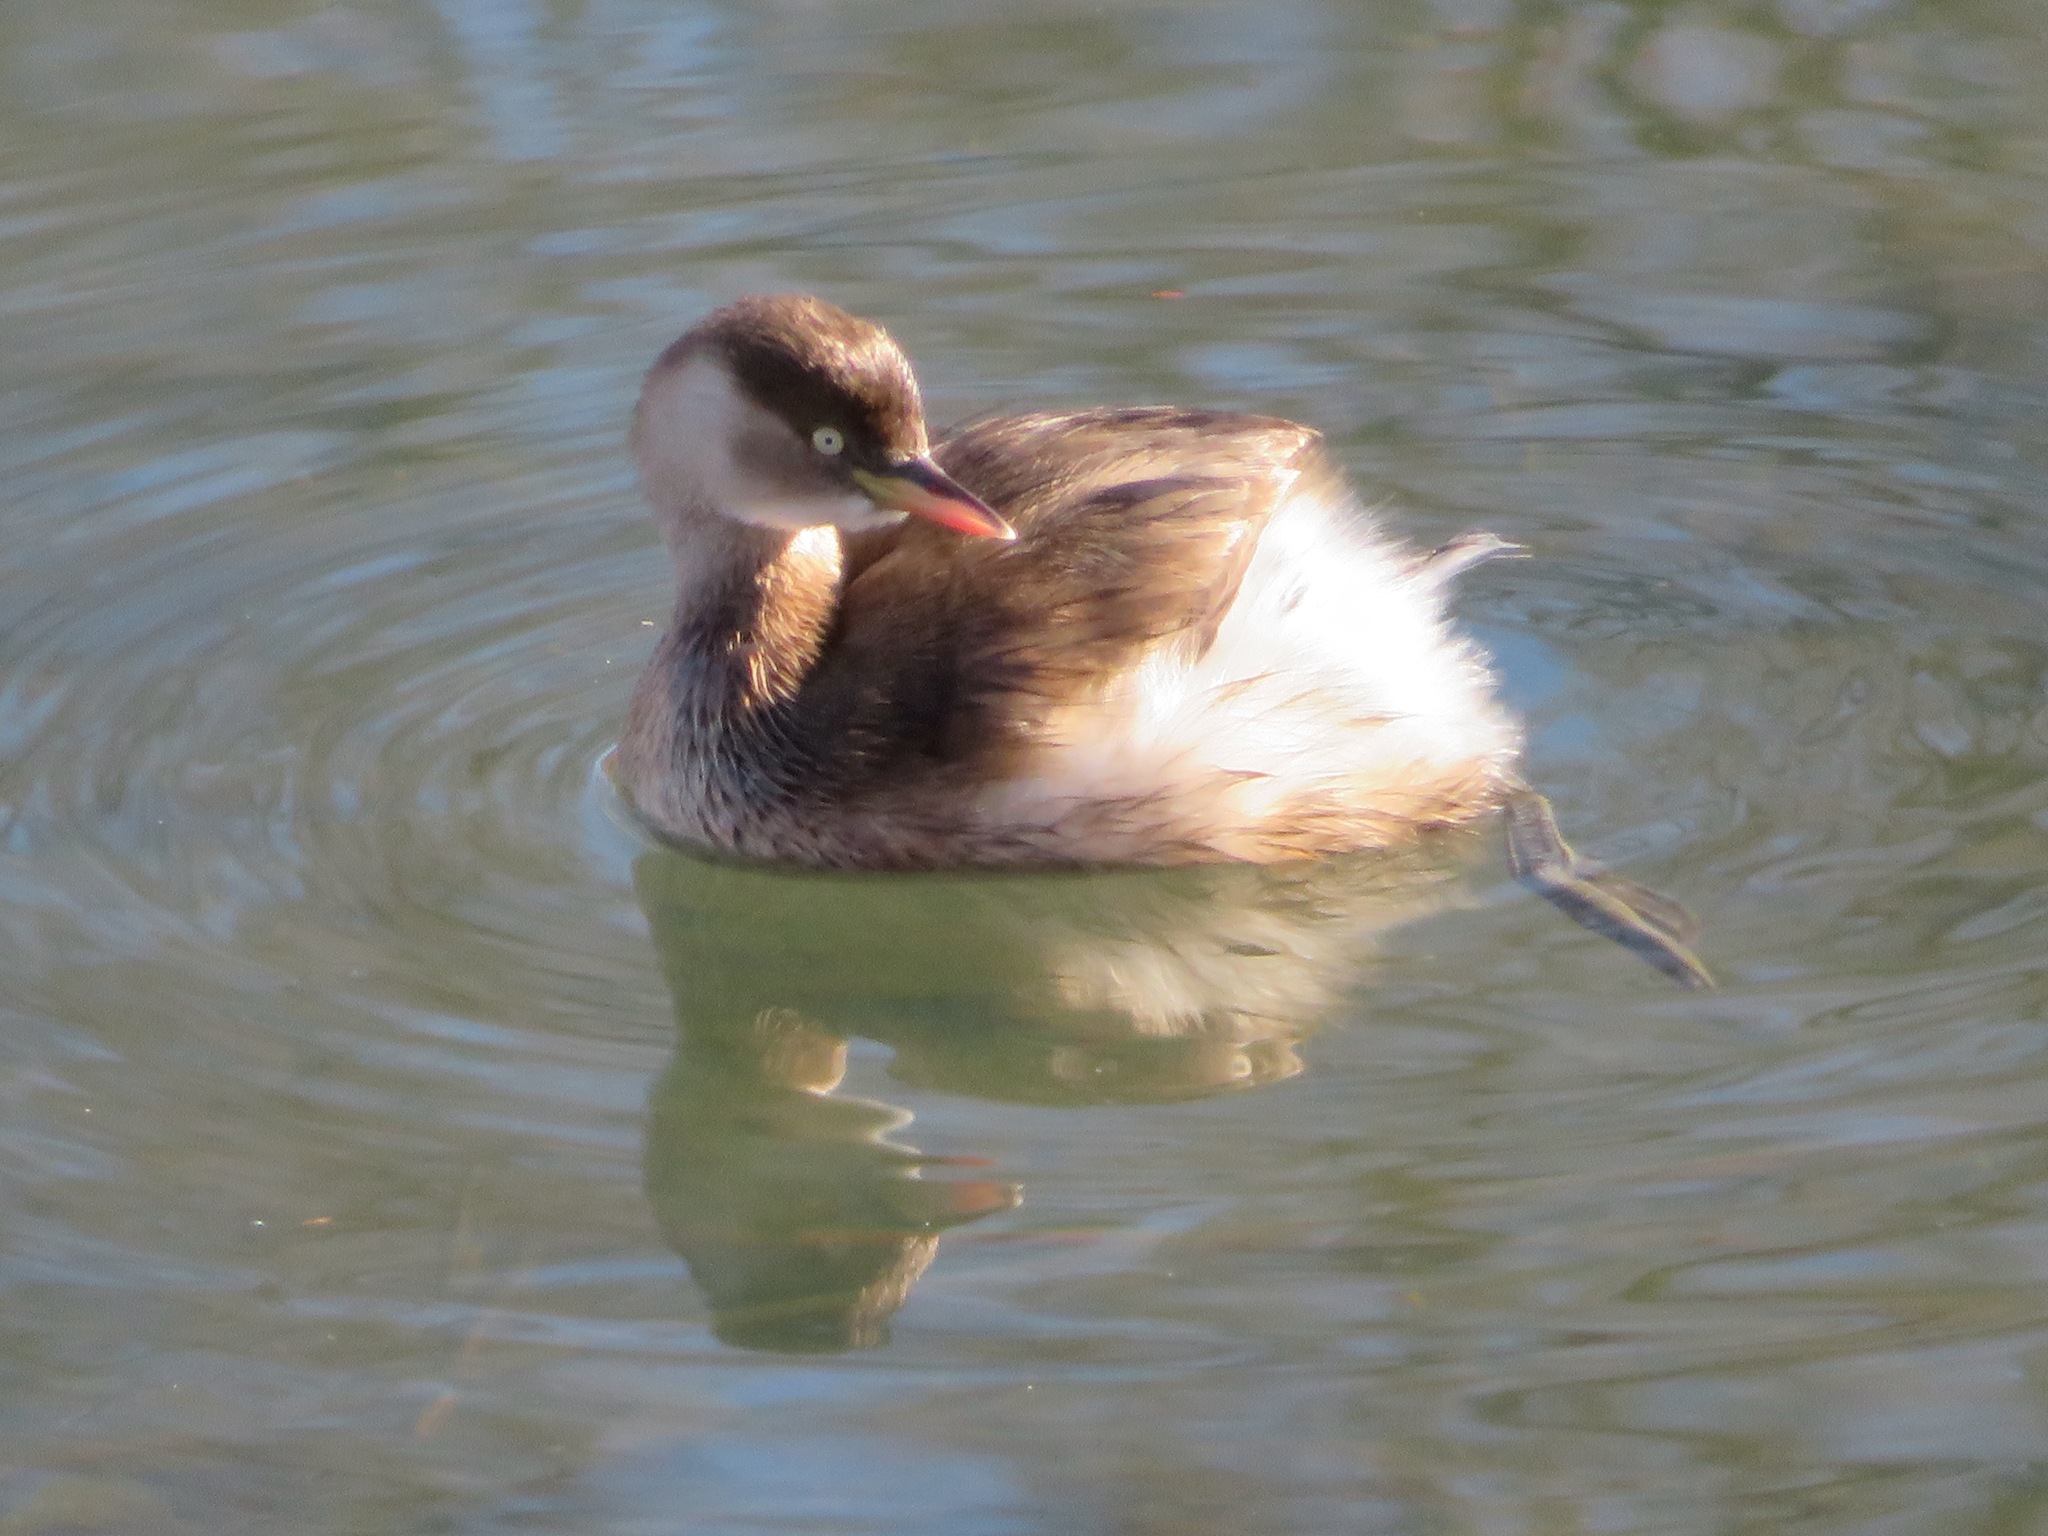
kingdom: Animalia
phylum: Chordata
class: Aves
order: Podicipediformes
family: Podicipedidae
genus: Tachybaptus
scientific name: Tachybaptus ruficollis
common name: Little grebe
